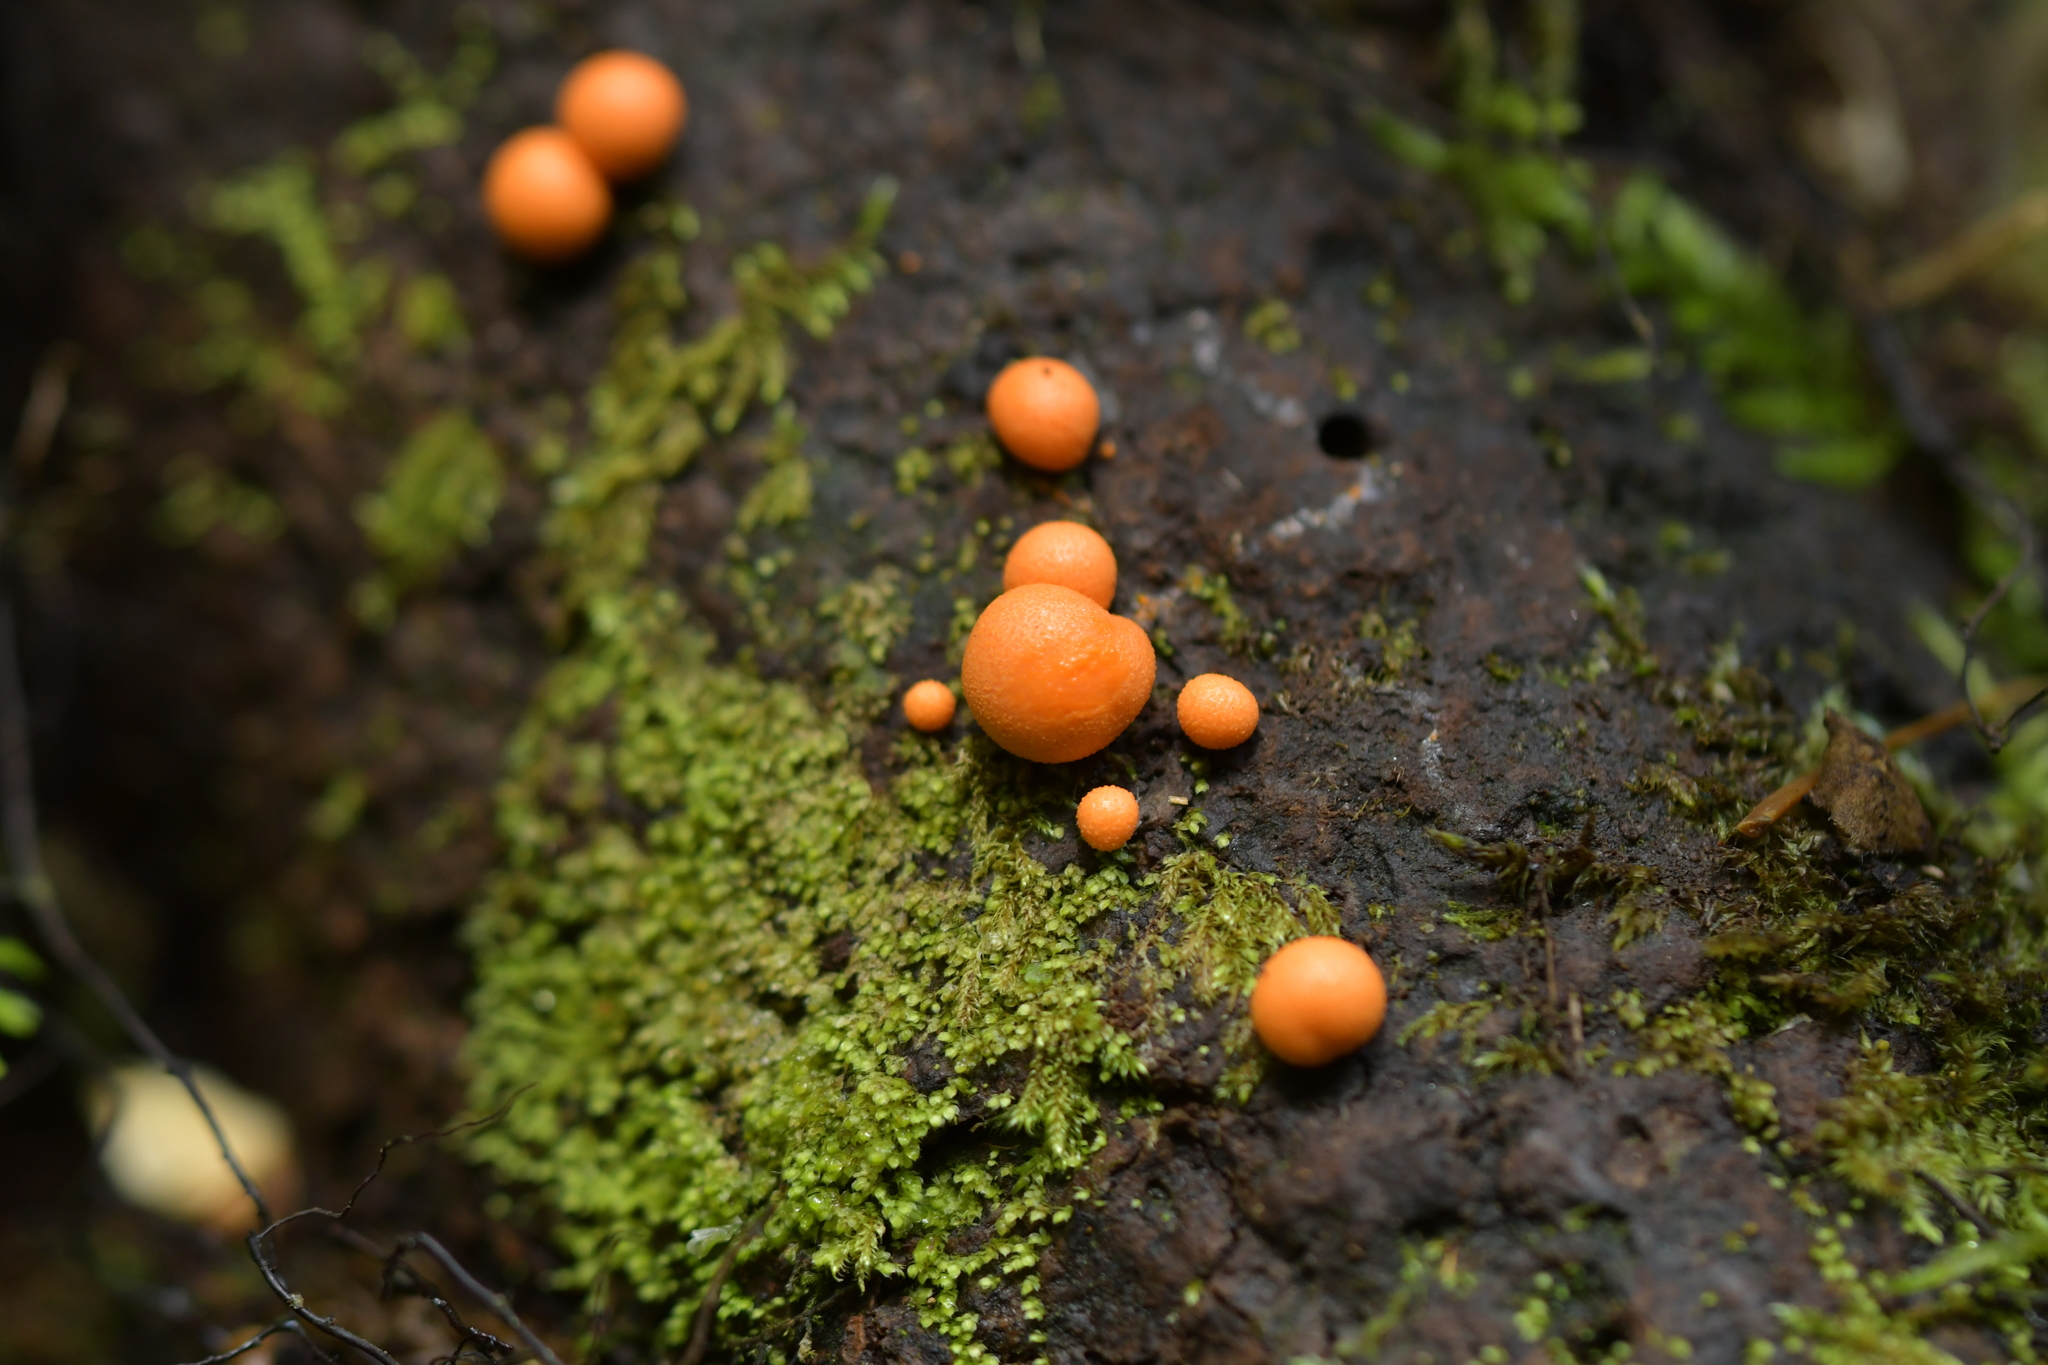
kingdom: Protozoa
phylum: Mycetozoa
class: Myxomycetes
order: Cribrariales
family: Tubiferaceae
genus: Lycogala
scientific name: Lycogala epidendrum
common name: Wolf's milk
